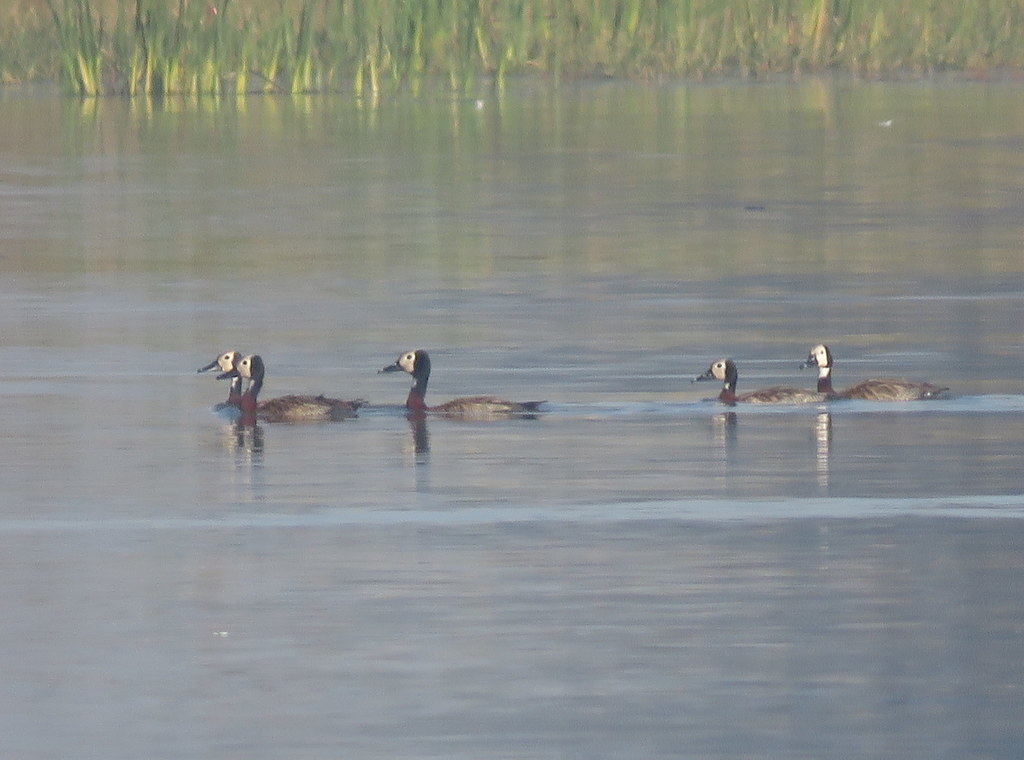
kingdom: Animalia
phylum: Chordata
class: Aves
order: Anseriformes
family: Anatidae
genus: Dendrocygna
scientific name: Dendrocygna viduata
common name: White-faced whistling duck
